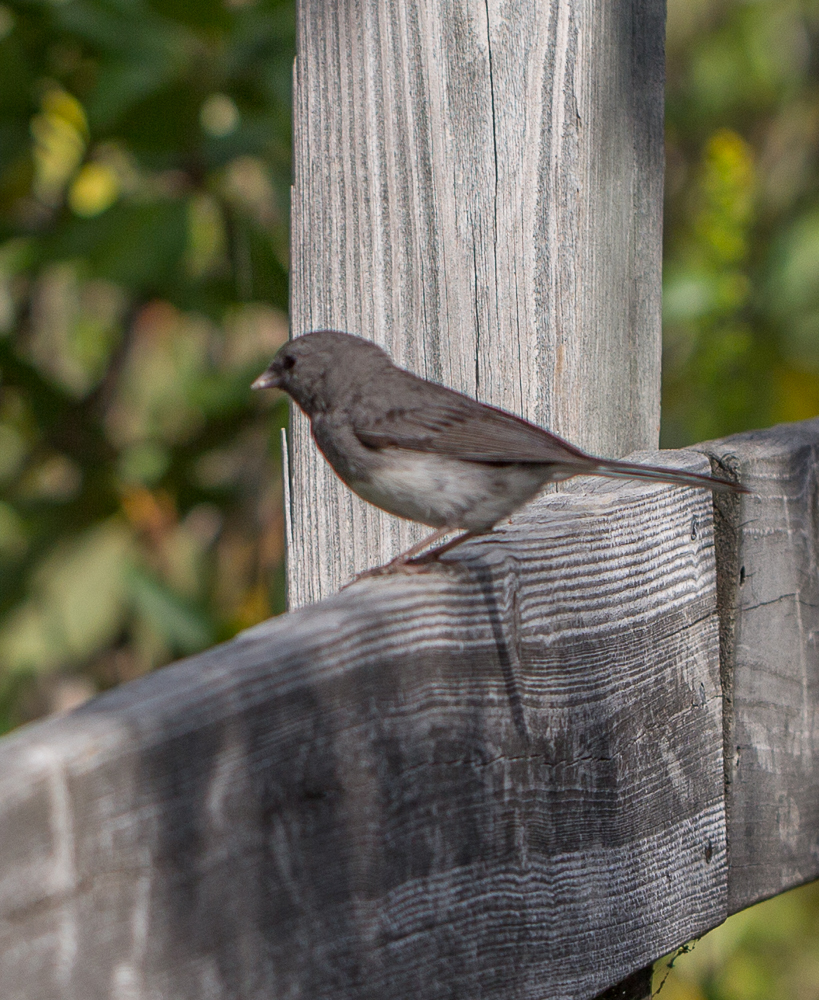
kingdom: Animalia
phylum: Chordata
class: Aves
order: Passeriformes
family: Passerellidae
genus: Junco
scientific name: Junco hyemalis
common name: Dark-eyed junco
